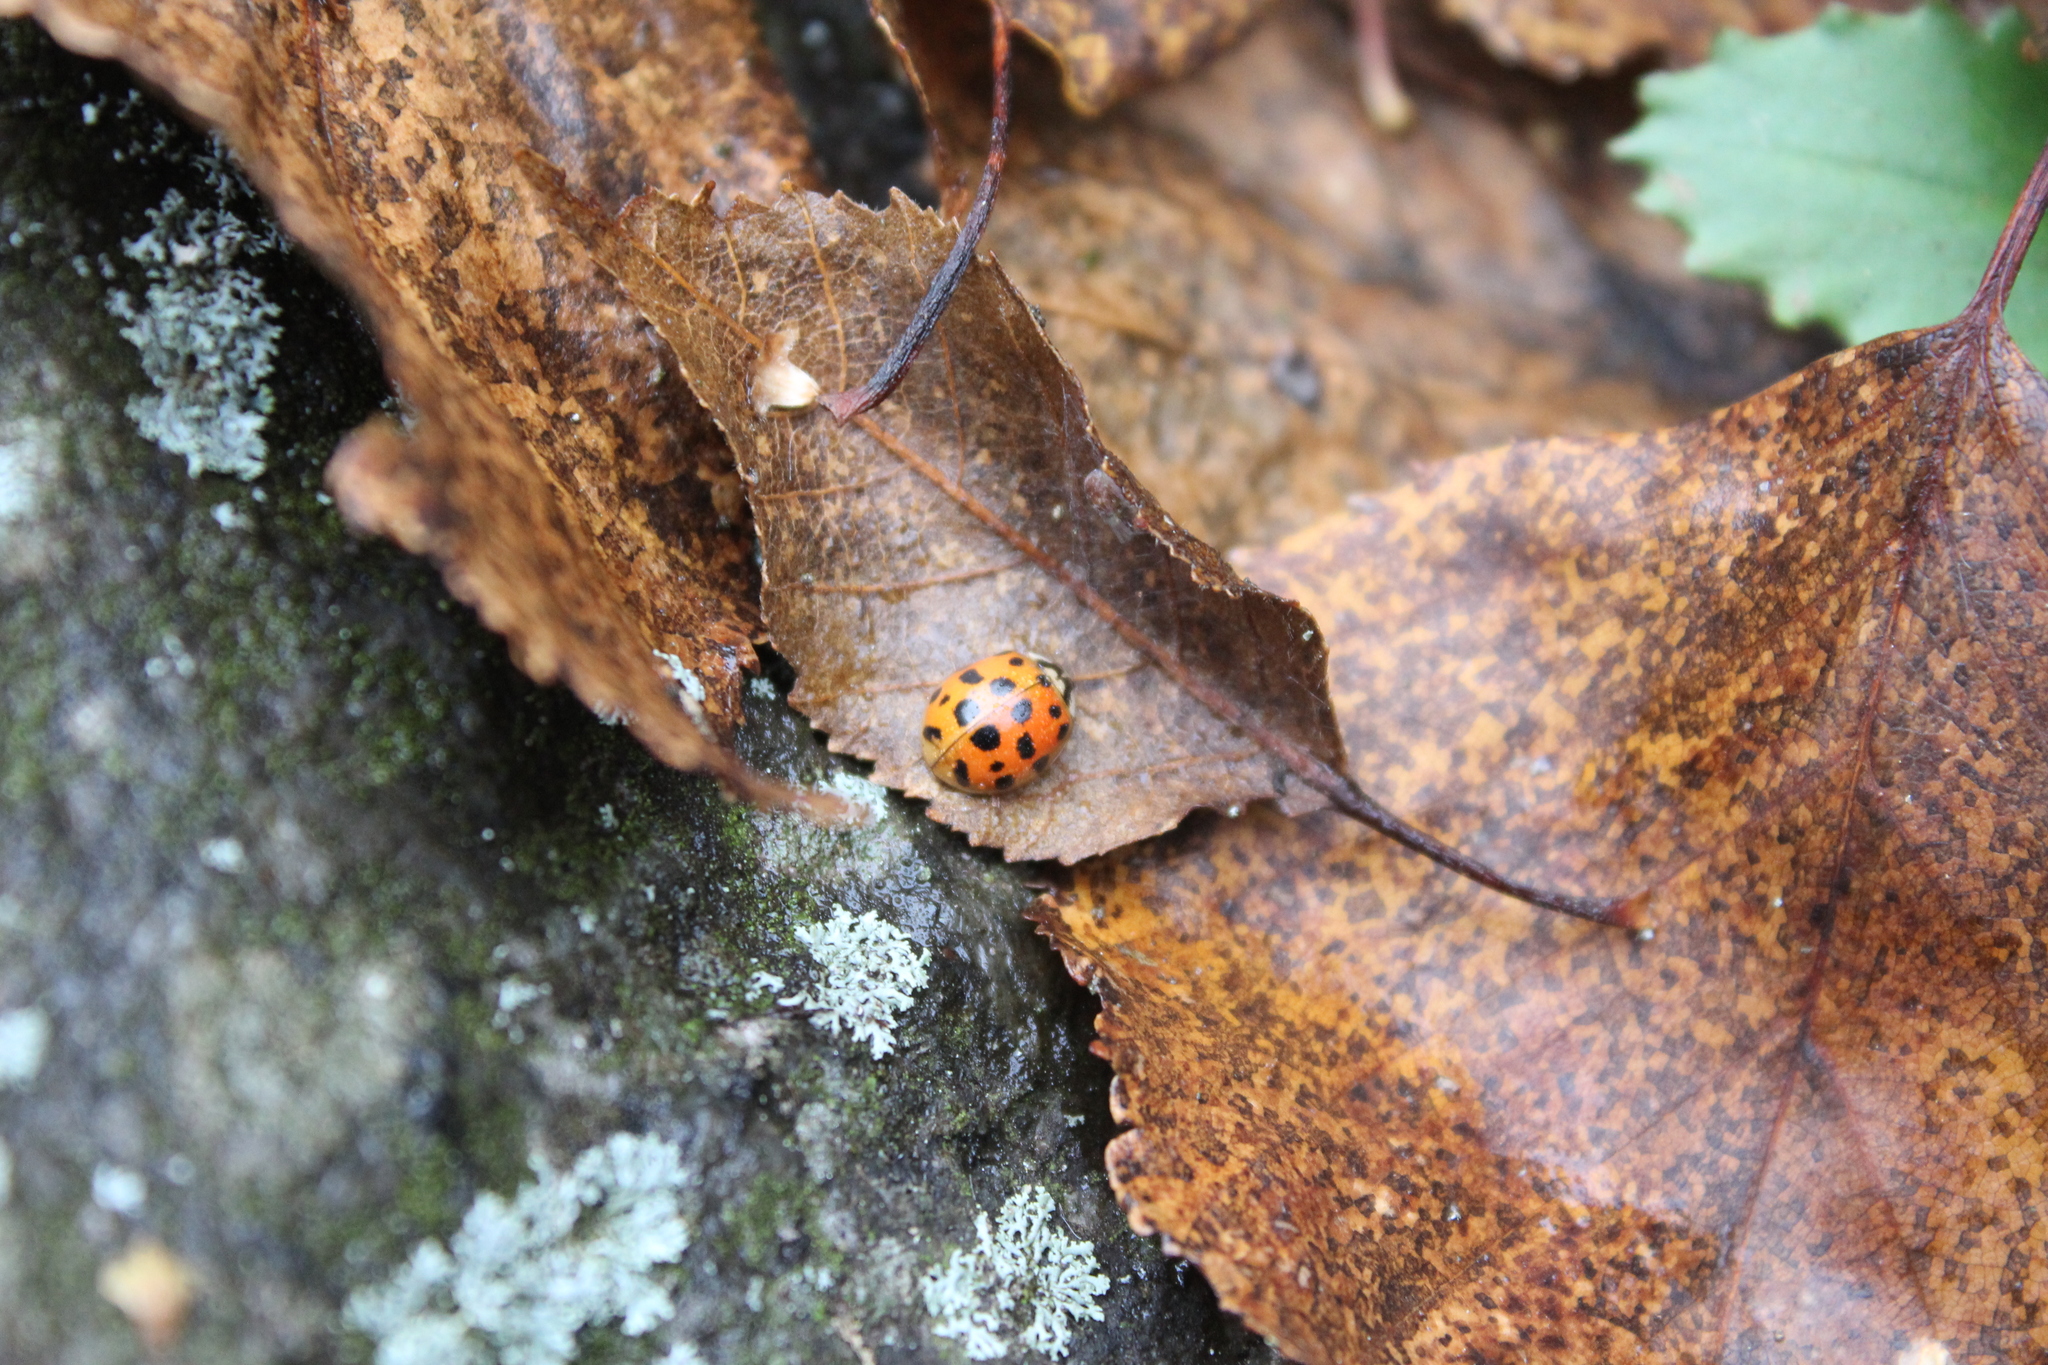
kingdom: Animalia
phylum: Arthropoda
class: Insecta
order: Coleoptera
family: Coccinellidae
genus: Harmonia
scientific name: Harmonia axyridis
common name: Harlequin ladybird
